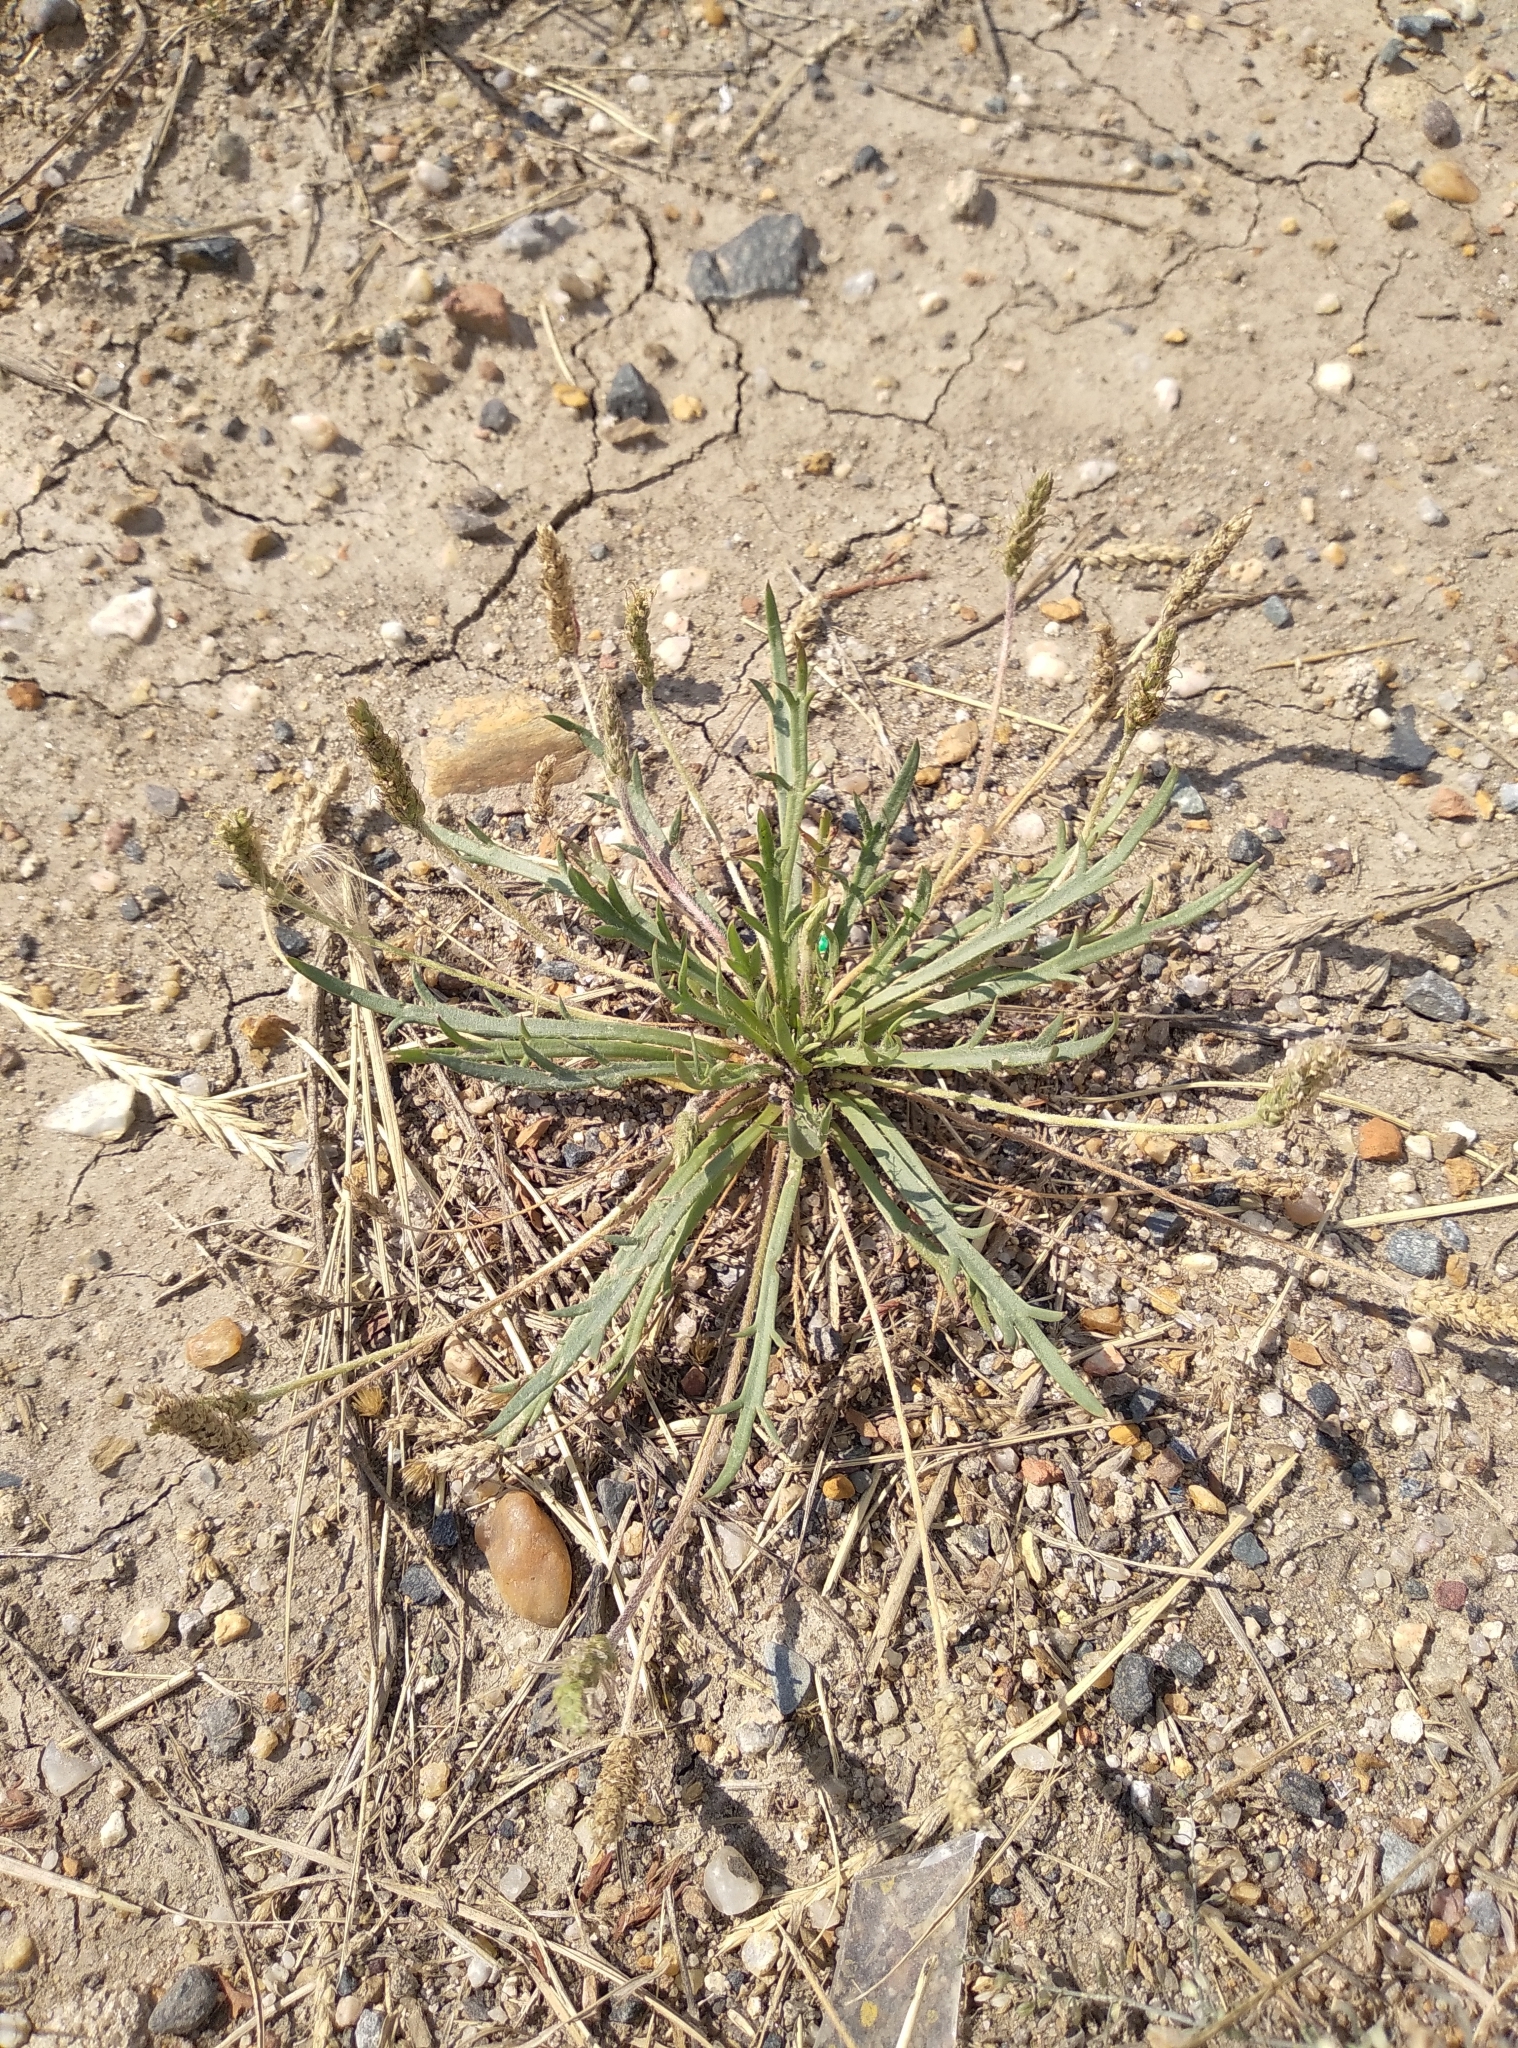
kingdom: Plantae
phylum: Tracheophyta
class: Magnoliopsida
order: Lamiales
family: Plantaginaceae
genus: Plantago
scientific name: Plantago coronopus
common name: Buck's-horn plantain
